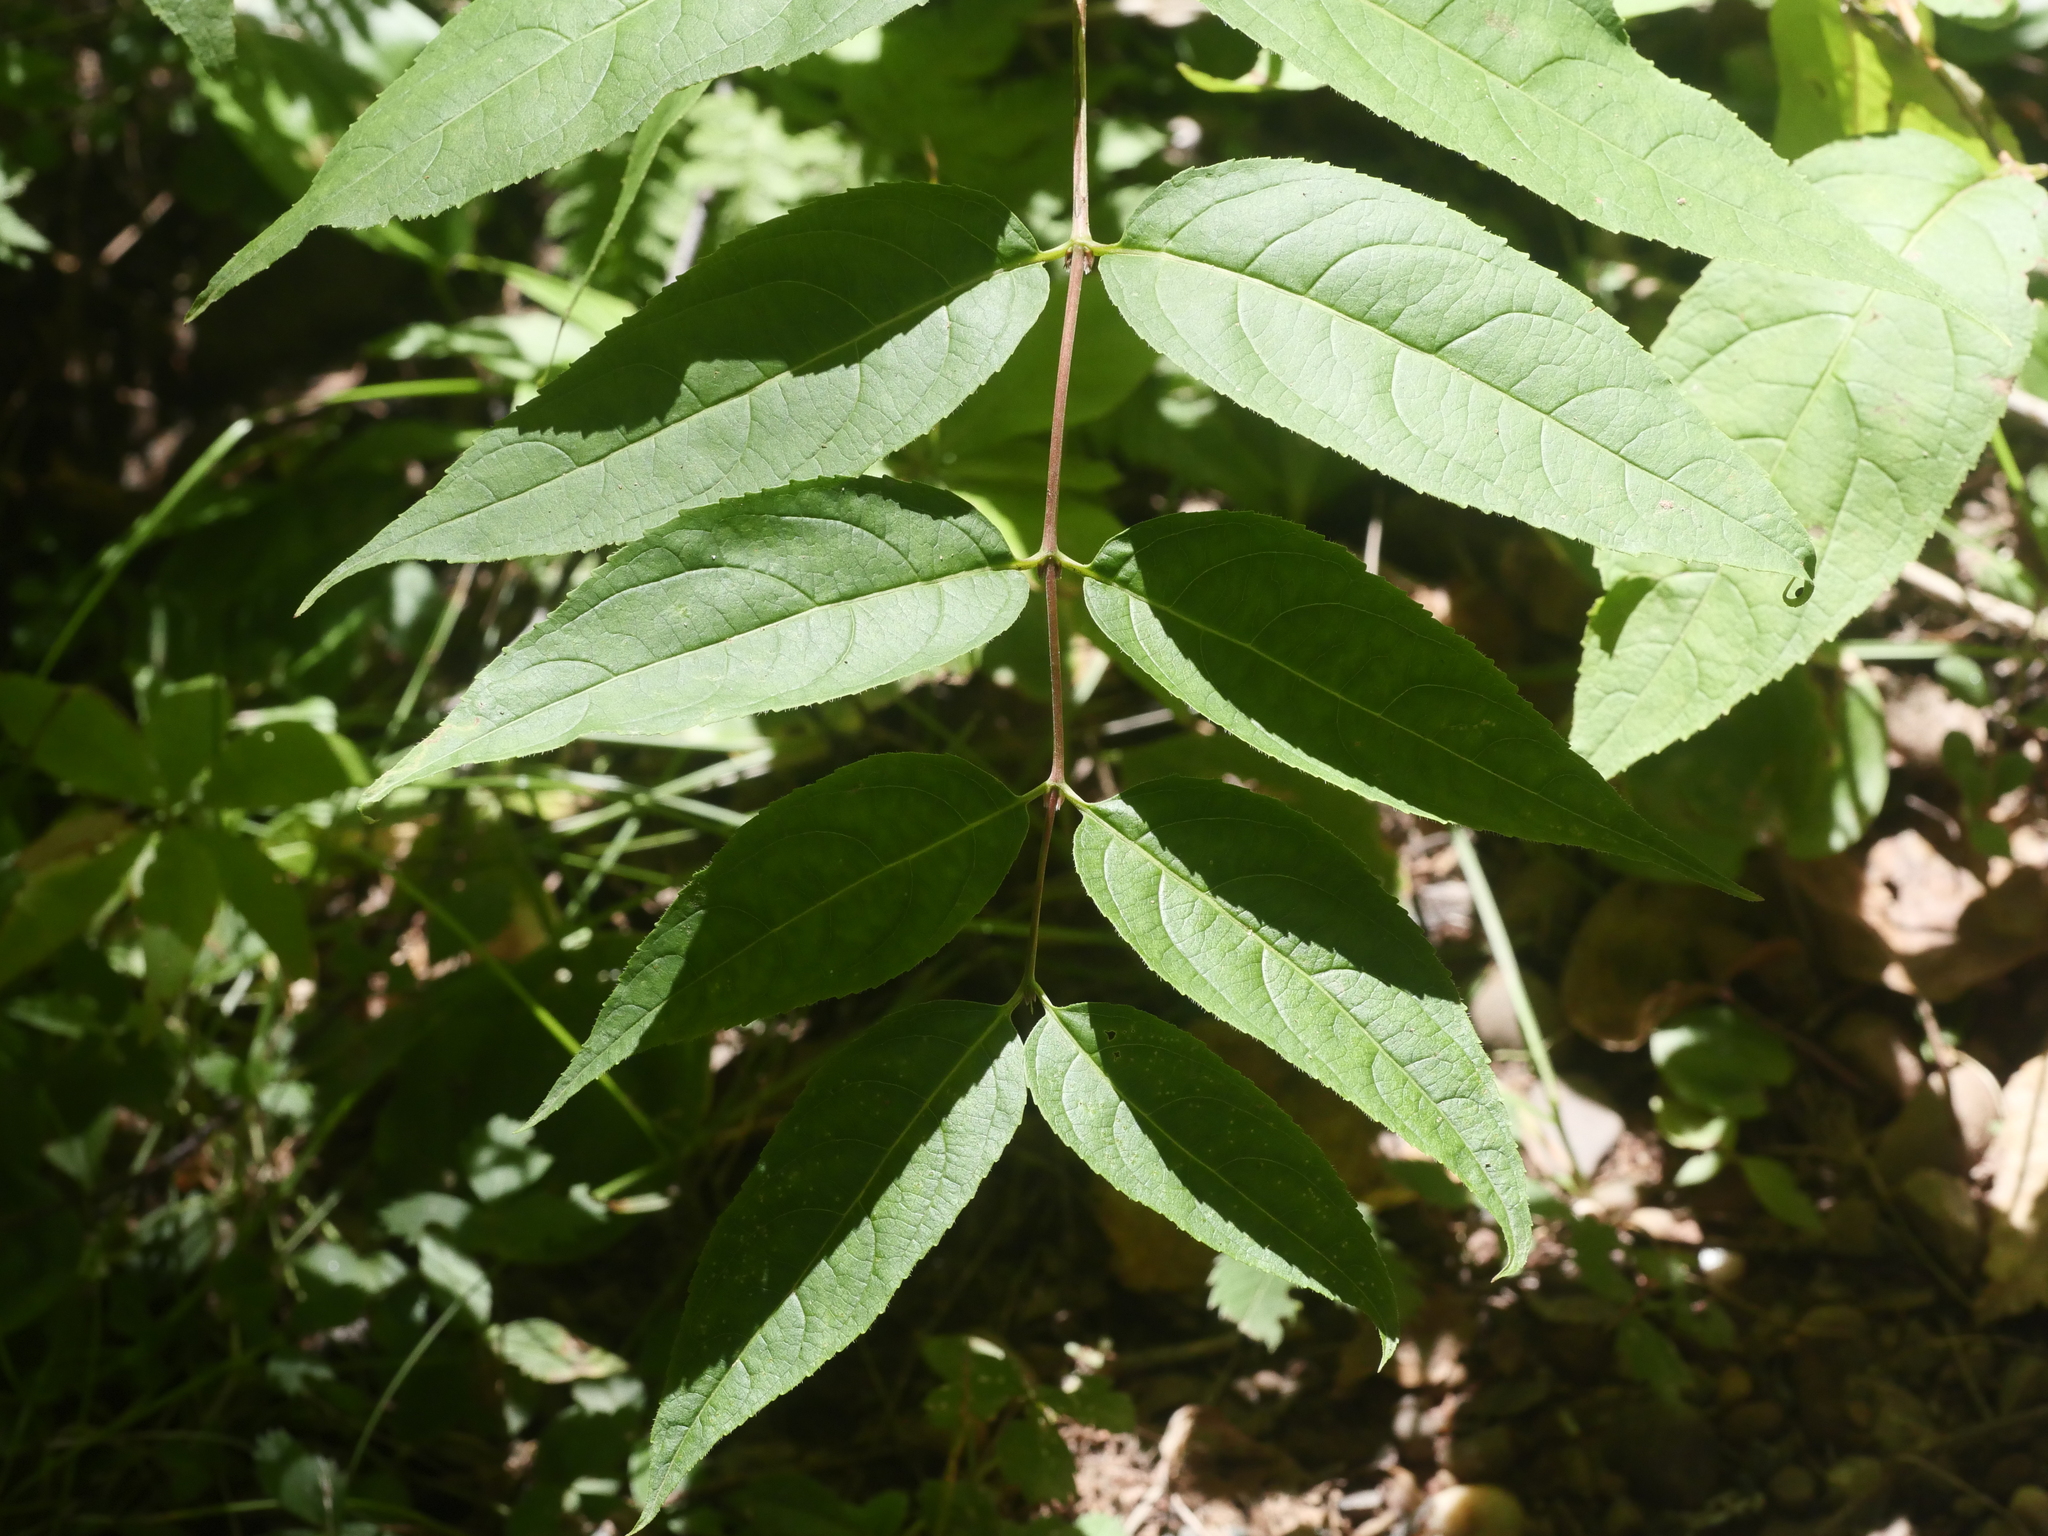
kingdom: Plantae
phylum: Tracheophyta
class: Magnoliopsida
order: Dipsacales
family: Caprifoliaceae
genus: Diervilla
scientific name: Diervilla lonicera
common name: Bush-honeysuckle
